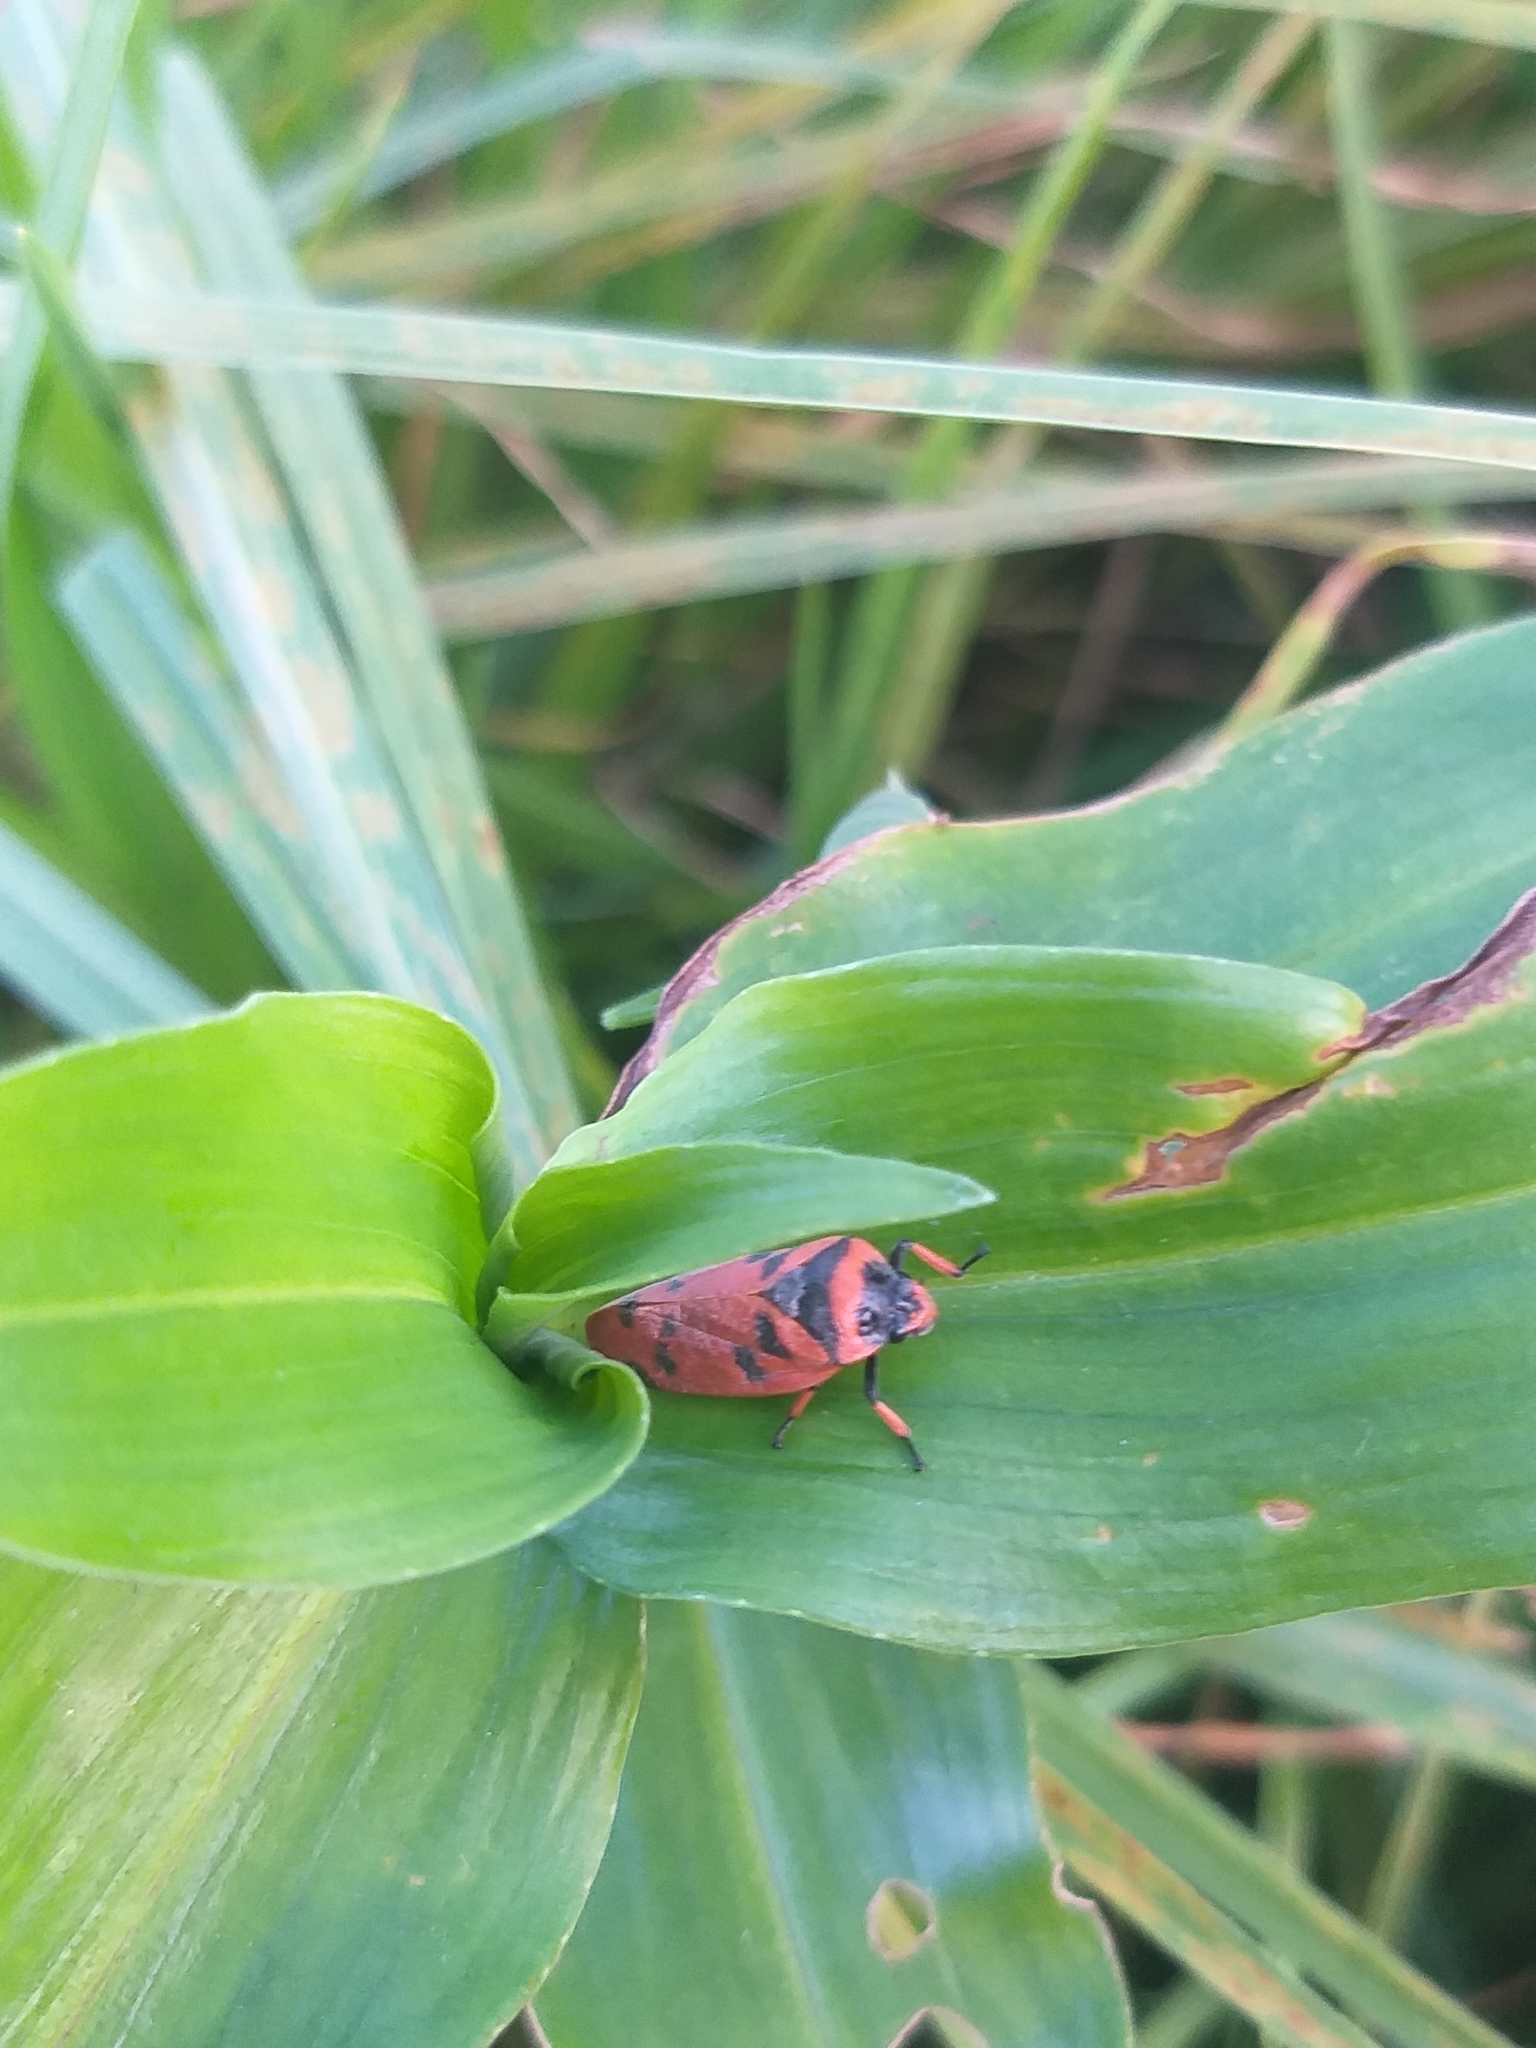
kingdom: Animalia
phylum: Arthropoda
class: Insecta
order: Hemiptera
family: Cercopidae
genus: Locris
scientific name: Locris arithmetica
